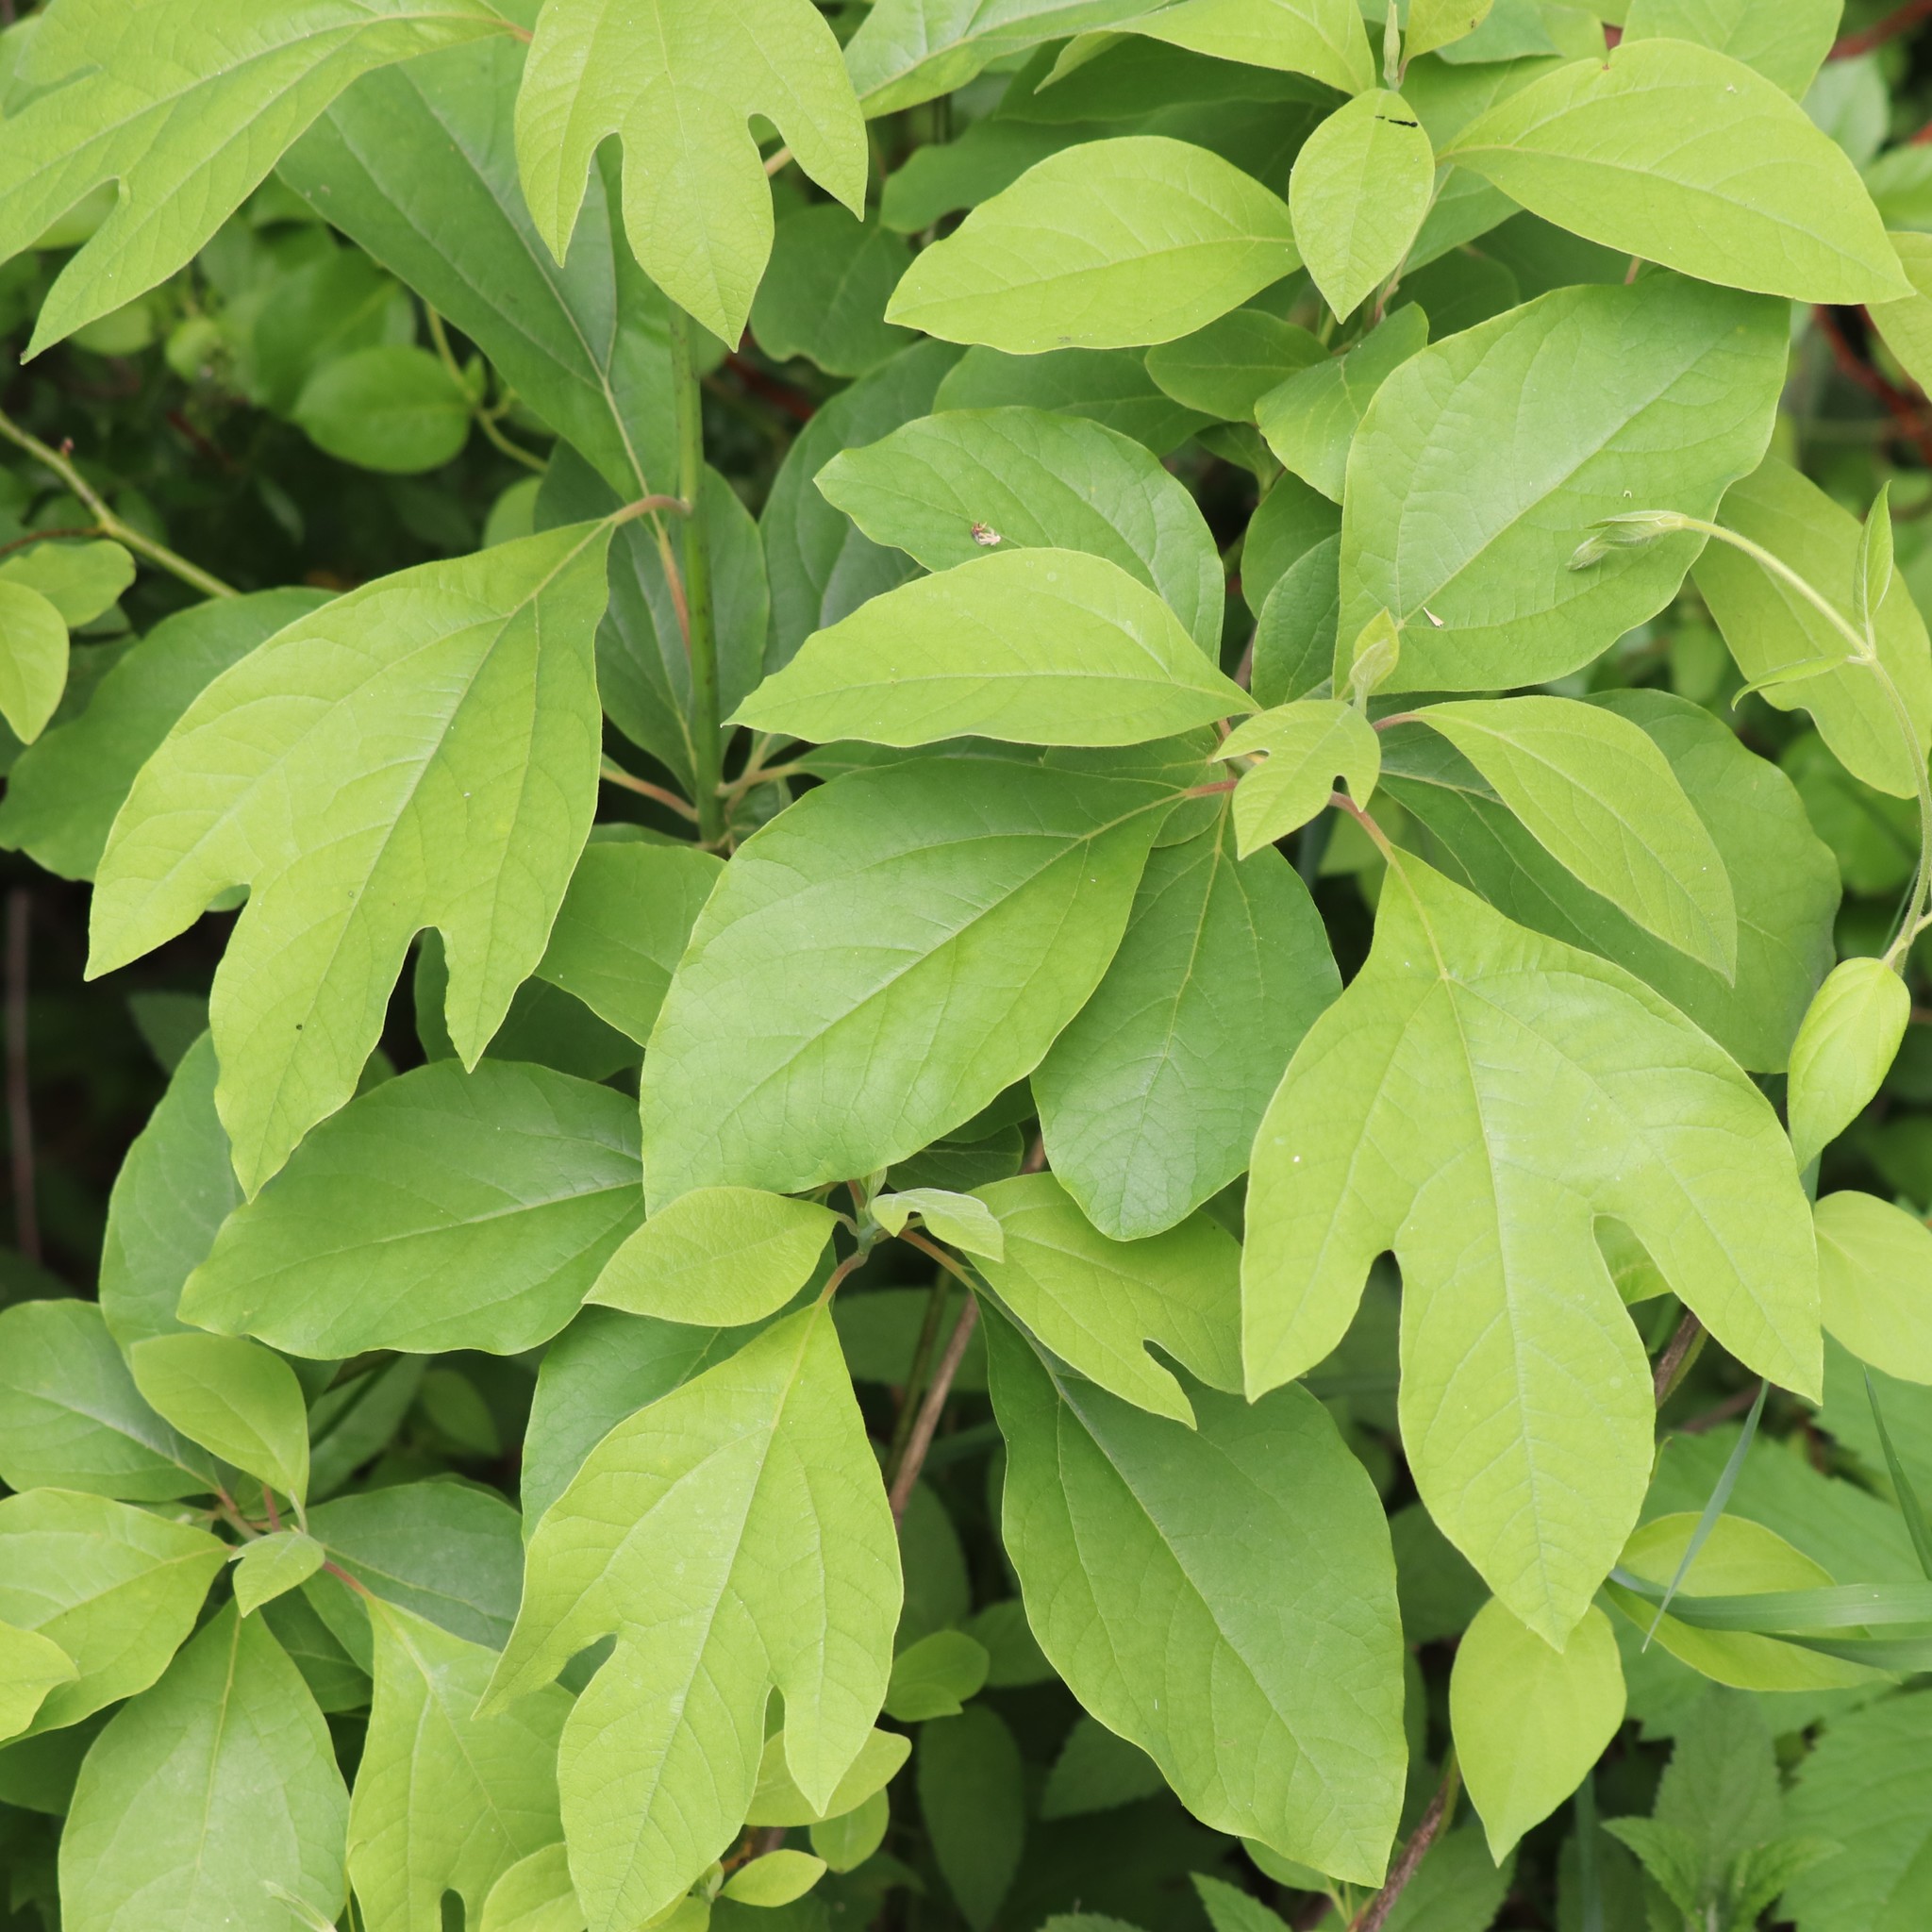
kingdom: Plantae
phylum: Tracheophyta
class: Magnoliopsida
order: Laurales
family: Lauraceae
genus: Sassafras
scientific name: Sassafras albidum
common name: Sassafras
